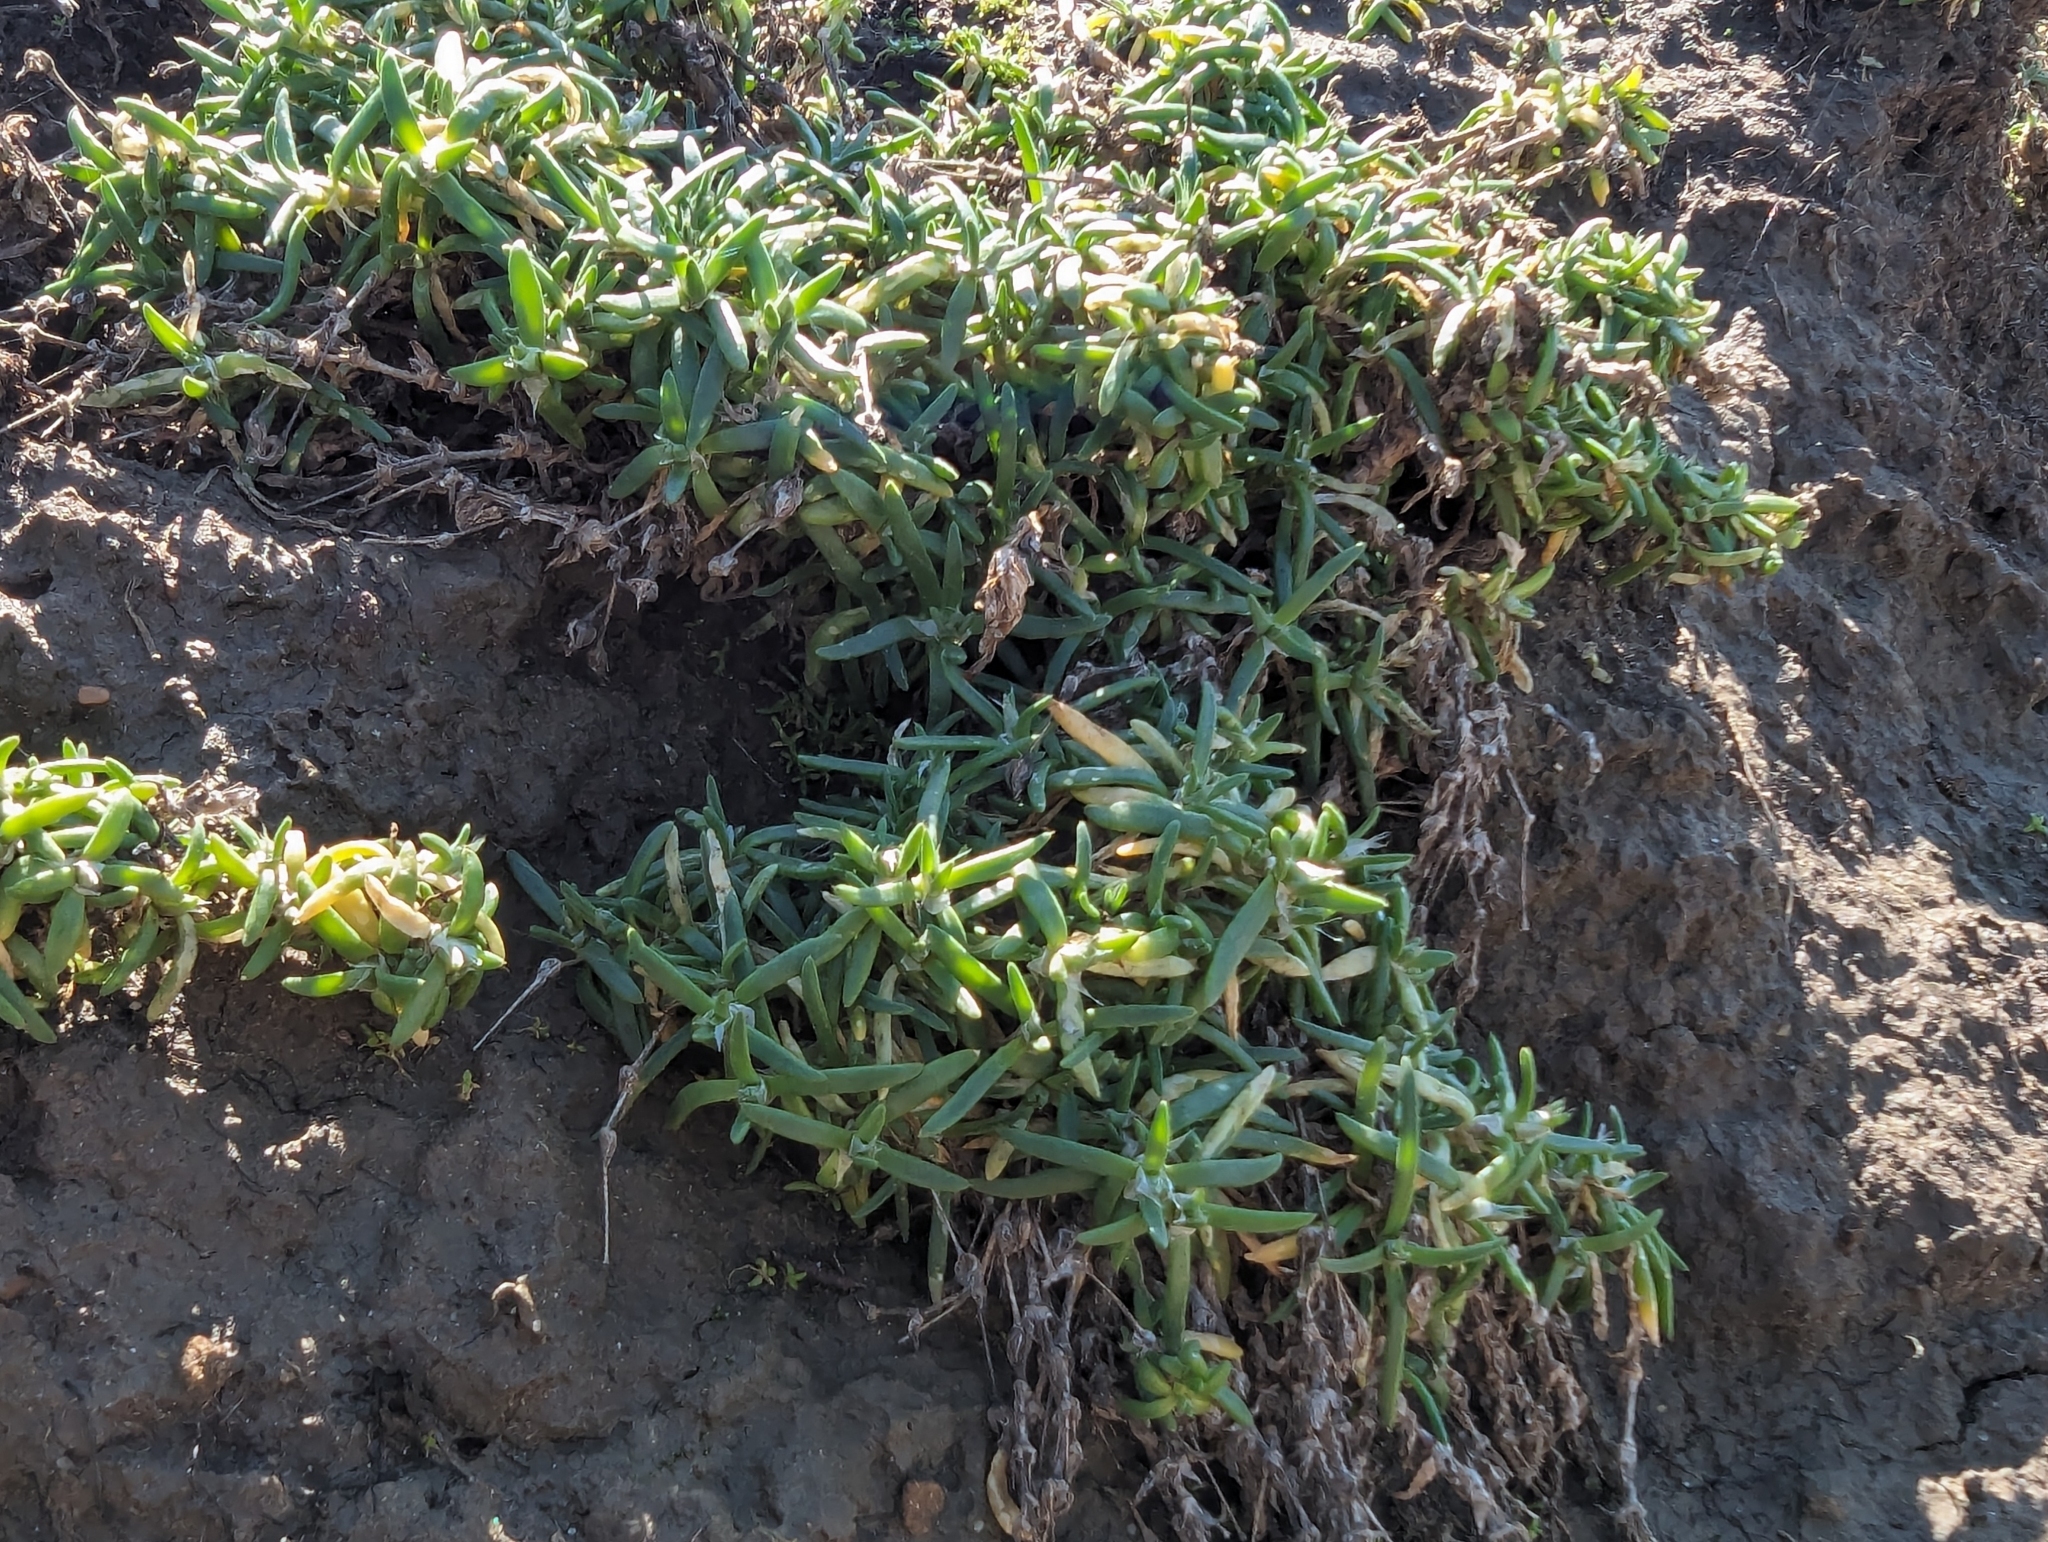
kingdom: Plantae
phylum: Tracheophyta
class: Magnoliopsida
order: Caryophyllales
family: Caryophyllaceae
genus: Spergularia
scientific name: Spergularia macrotheca
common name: Beach sand-spurrey
